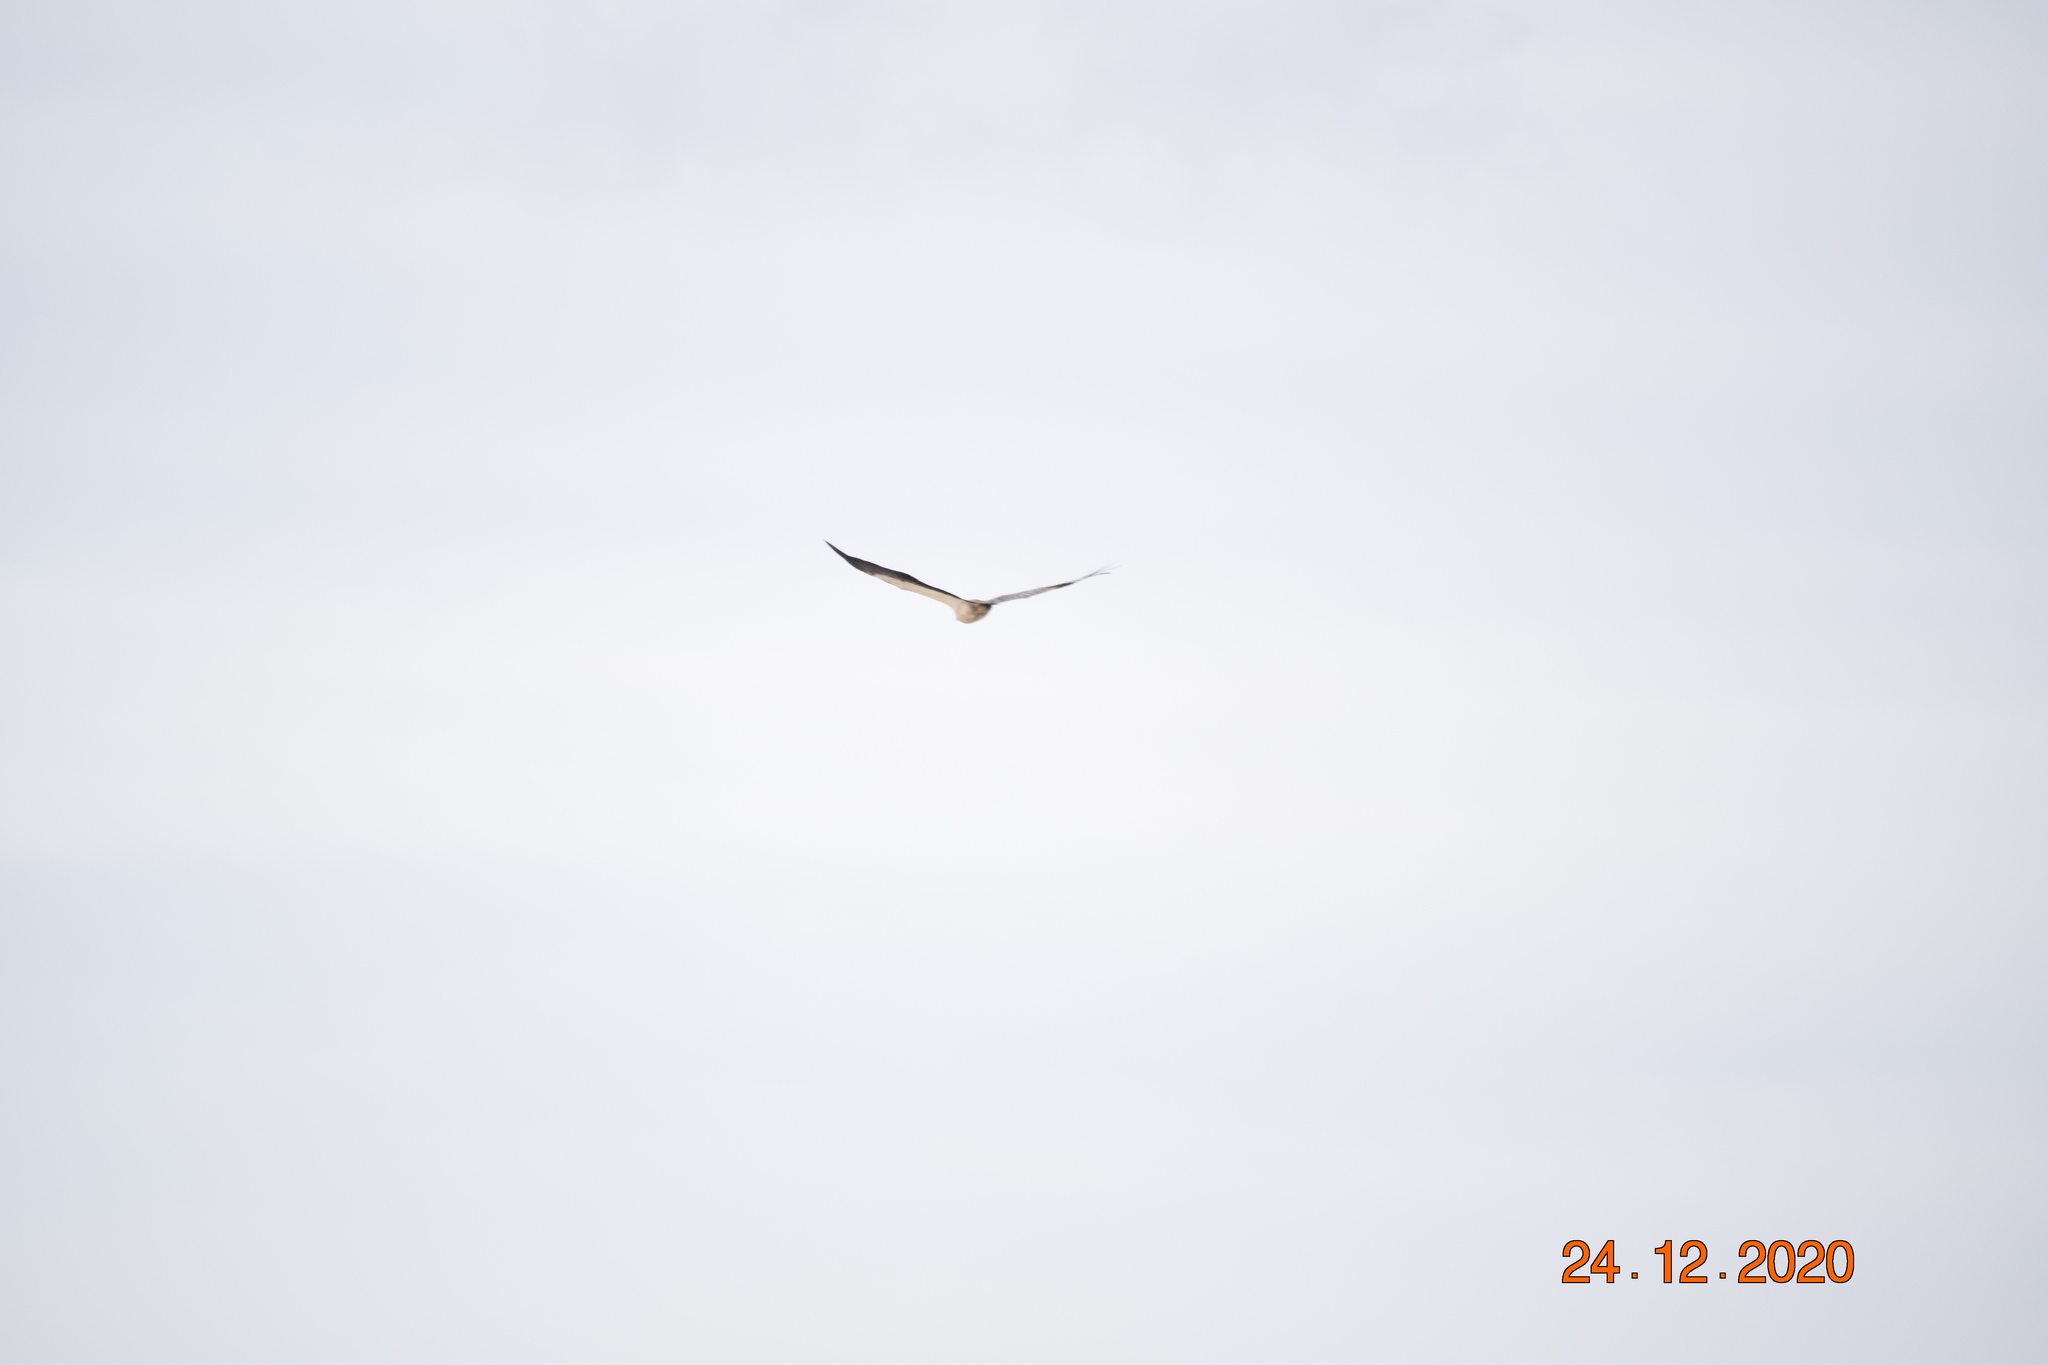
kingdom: Animalia
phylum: Chordata
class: Aves
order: Accipitriformes
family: Accipitridae
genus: Haliaeetus
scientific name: Haliaeetus leucogaster
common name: White-bellied sea eagle
